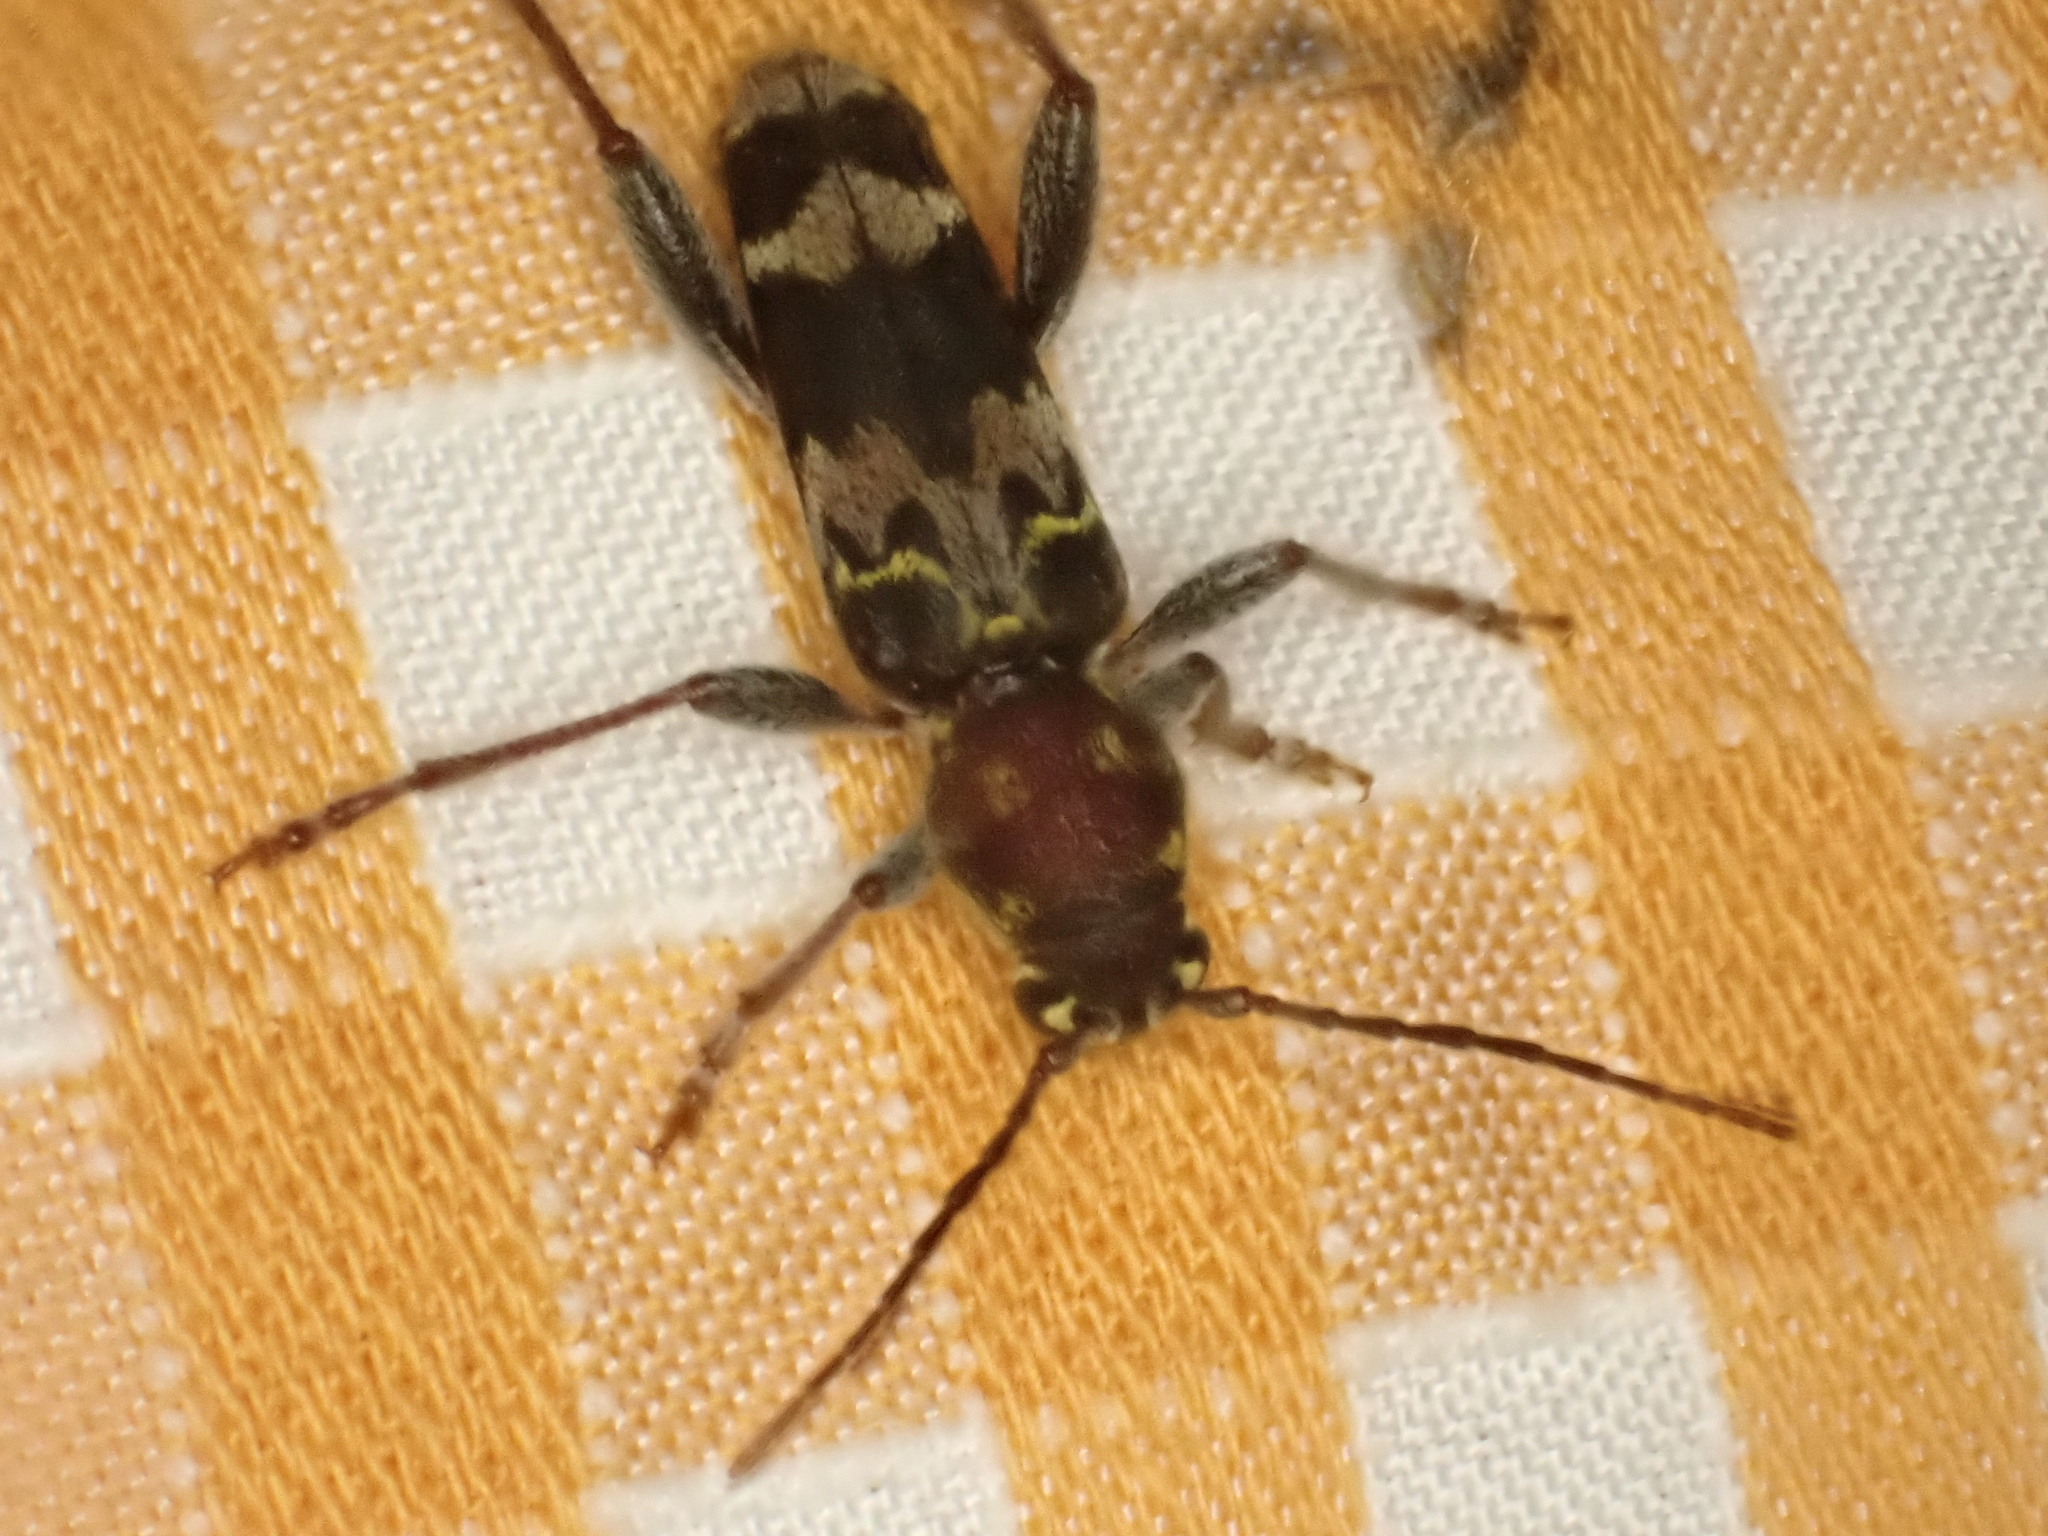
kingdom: Animalia
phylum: Arthropoda
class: Insecta
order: Coleoptera
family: Cerambycidae
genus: Xylotrechus
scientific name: Xylotrechus colonus
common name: Long-horned beetle
